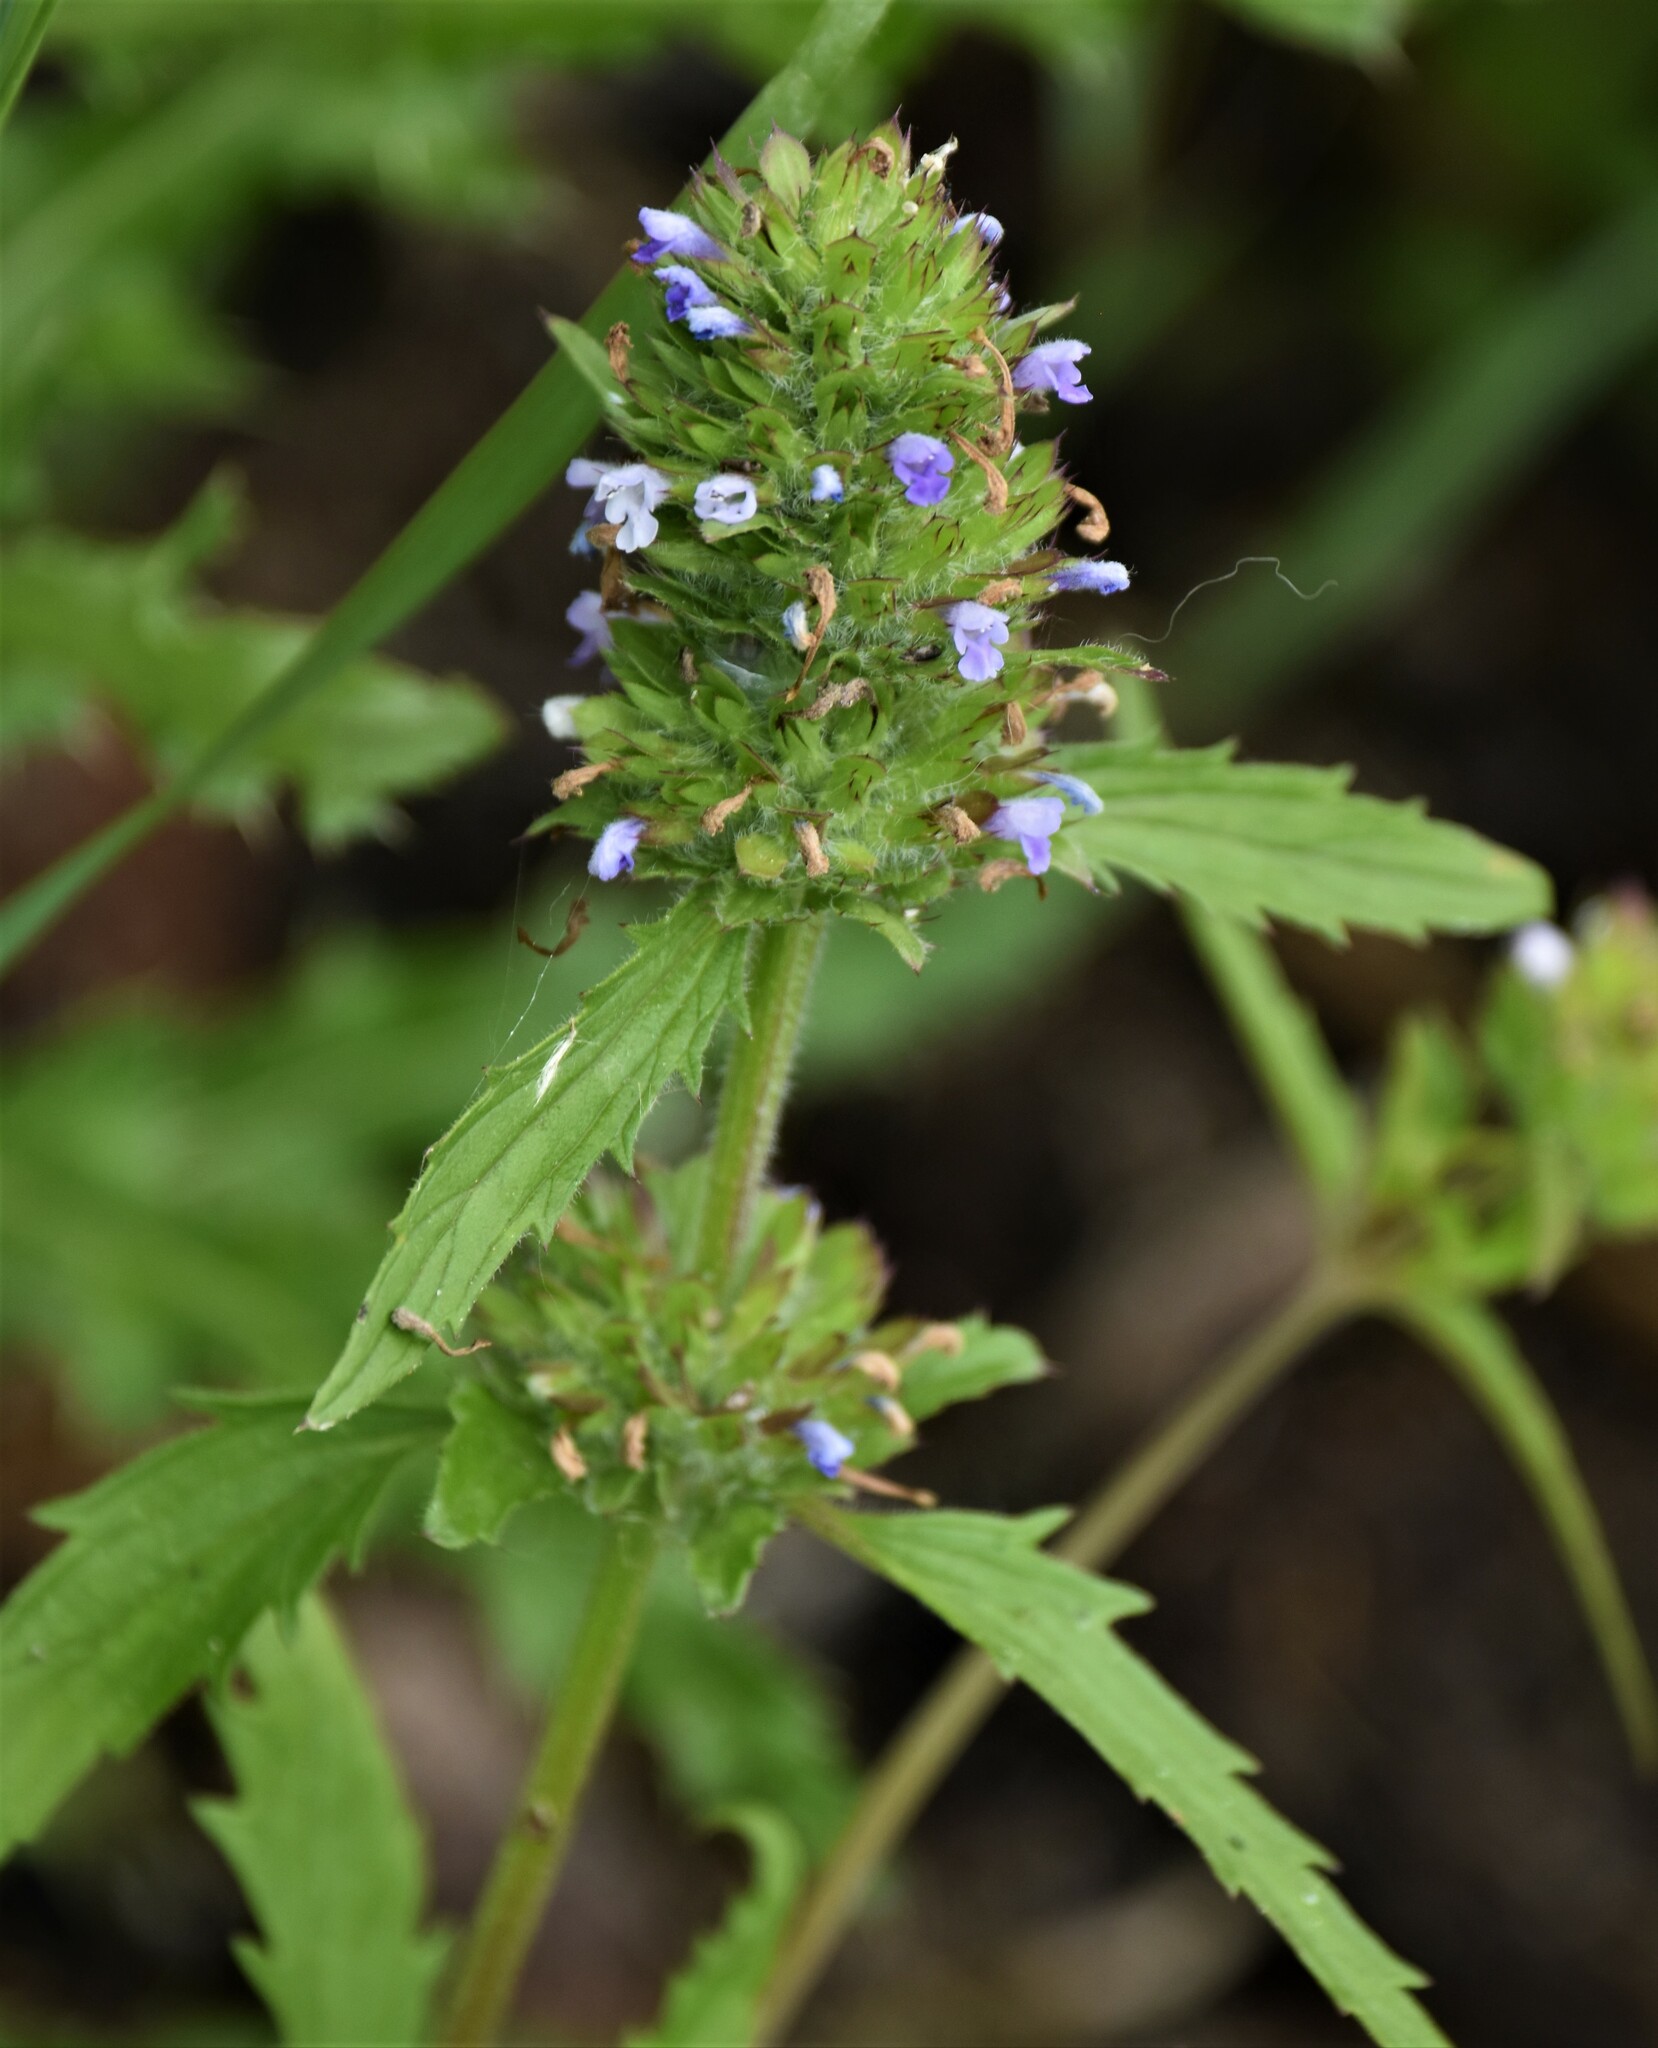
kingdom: Plantae
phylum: Tracheophyta
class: Magnoliopsida
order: Lamiales
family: Lamiaceae
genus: Dracocephalum
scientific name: Dracocephalum parviflorum
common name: American dragonhead
